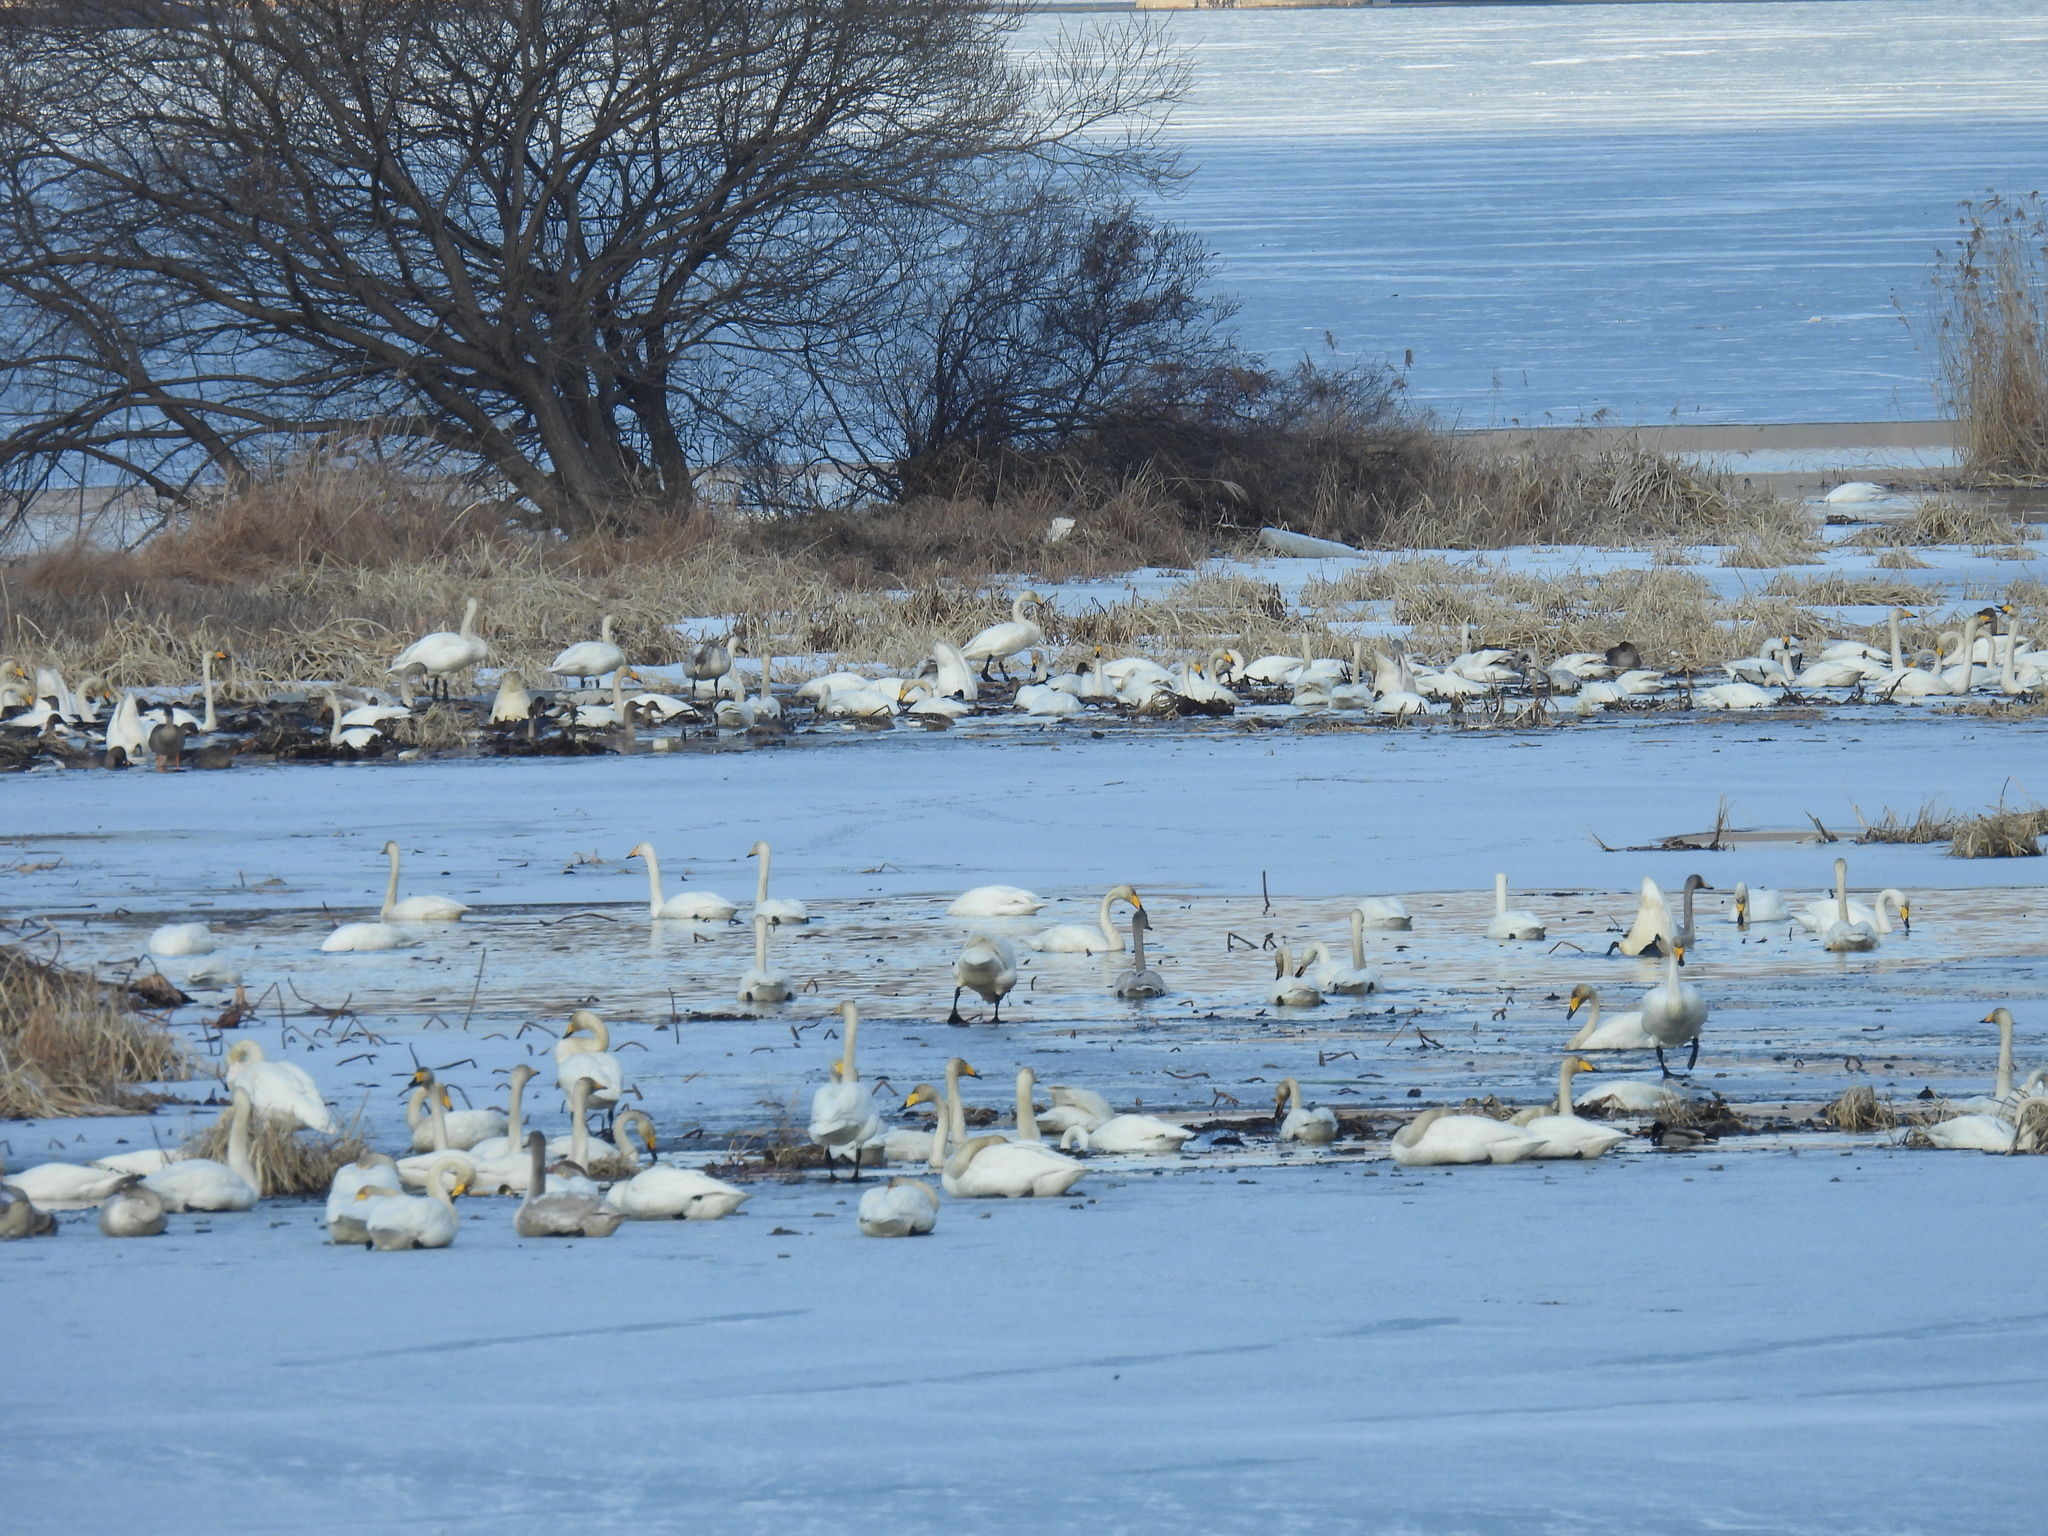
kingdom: Animalia
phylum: Chordata
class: Aves
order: Anseriformes
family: Anatidae
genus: Cygnus
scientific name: Cygnus cygnus
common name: Whooper swan
